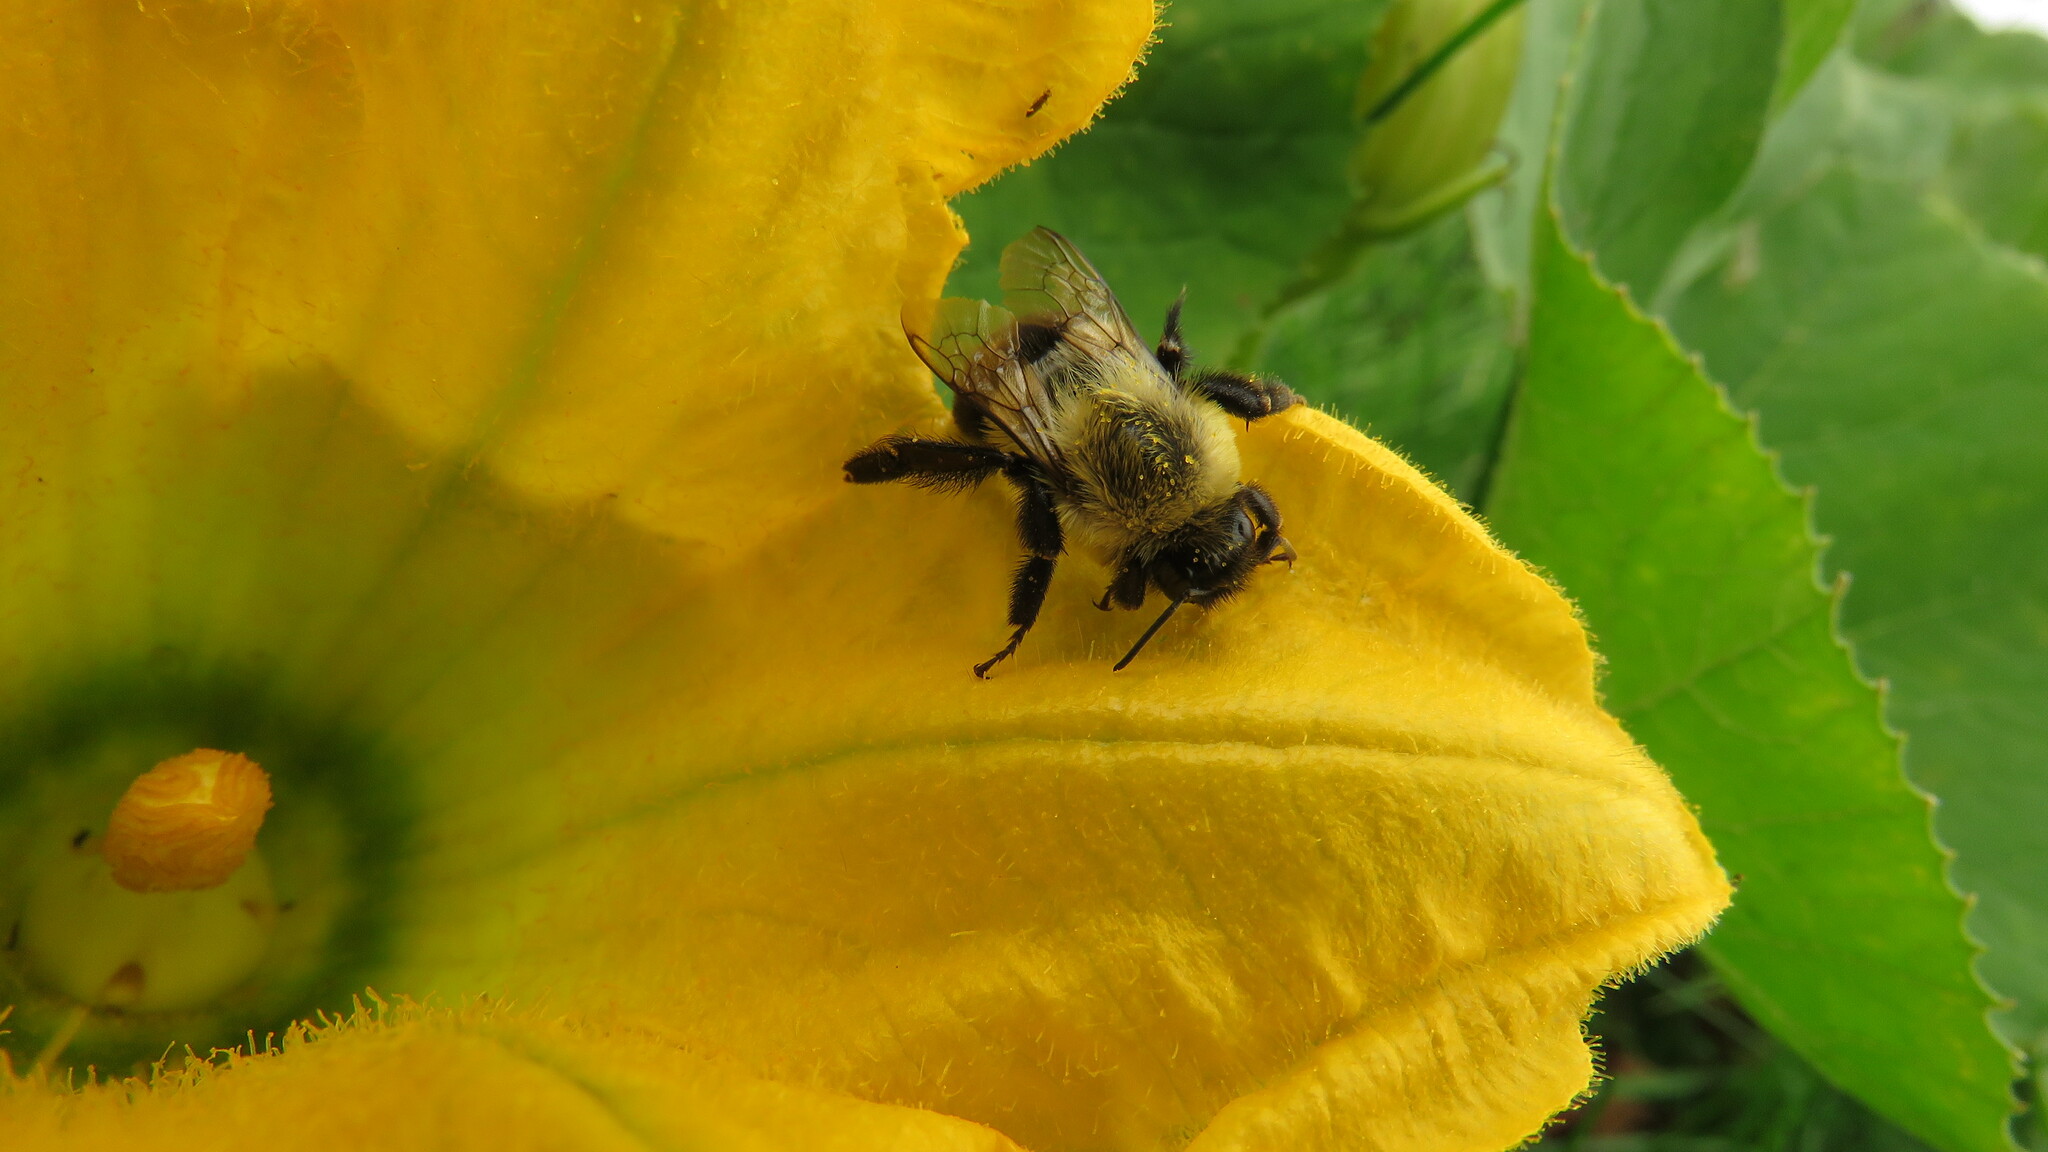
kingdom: Animalia
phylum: Arthropoda
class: Insecta
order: Hymenoptera
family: Apidae
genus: Bombus
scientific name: Bombus impatiens
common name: Common eastern bumble bee
